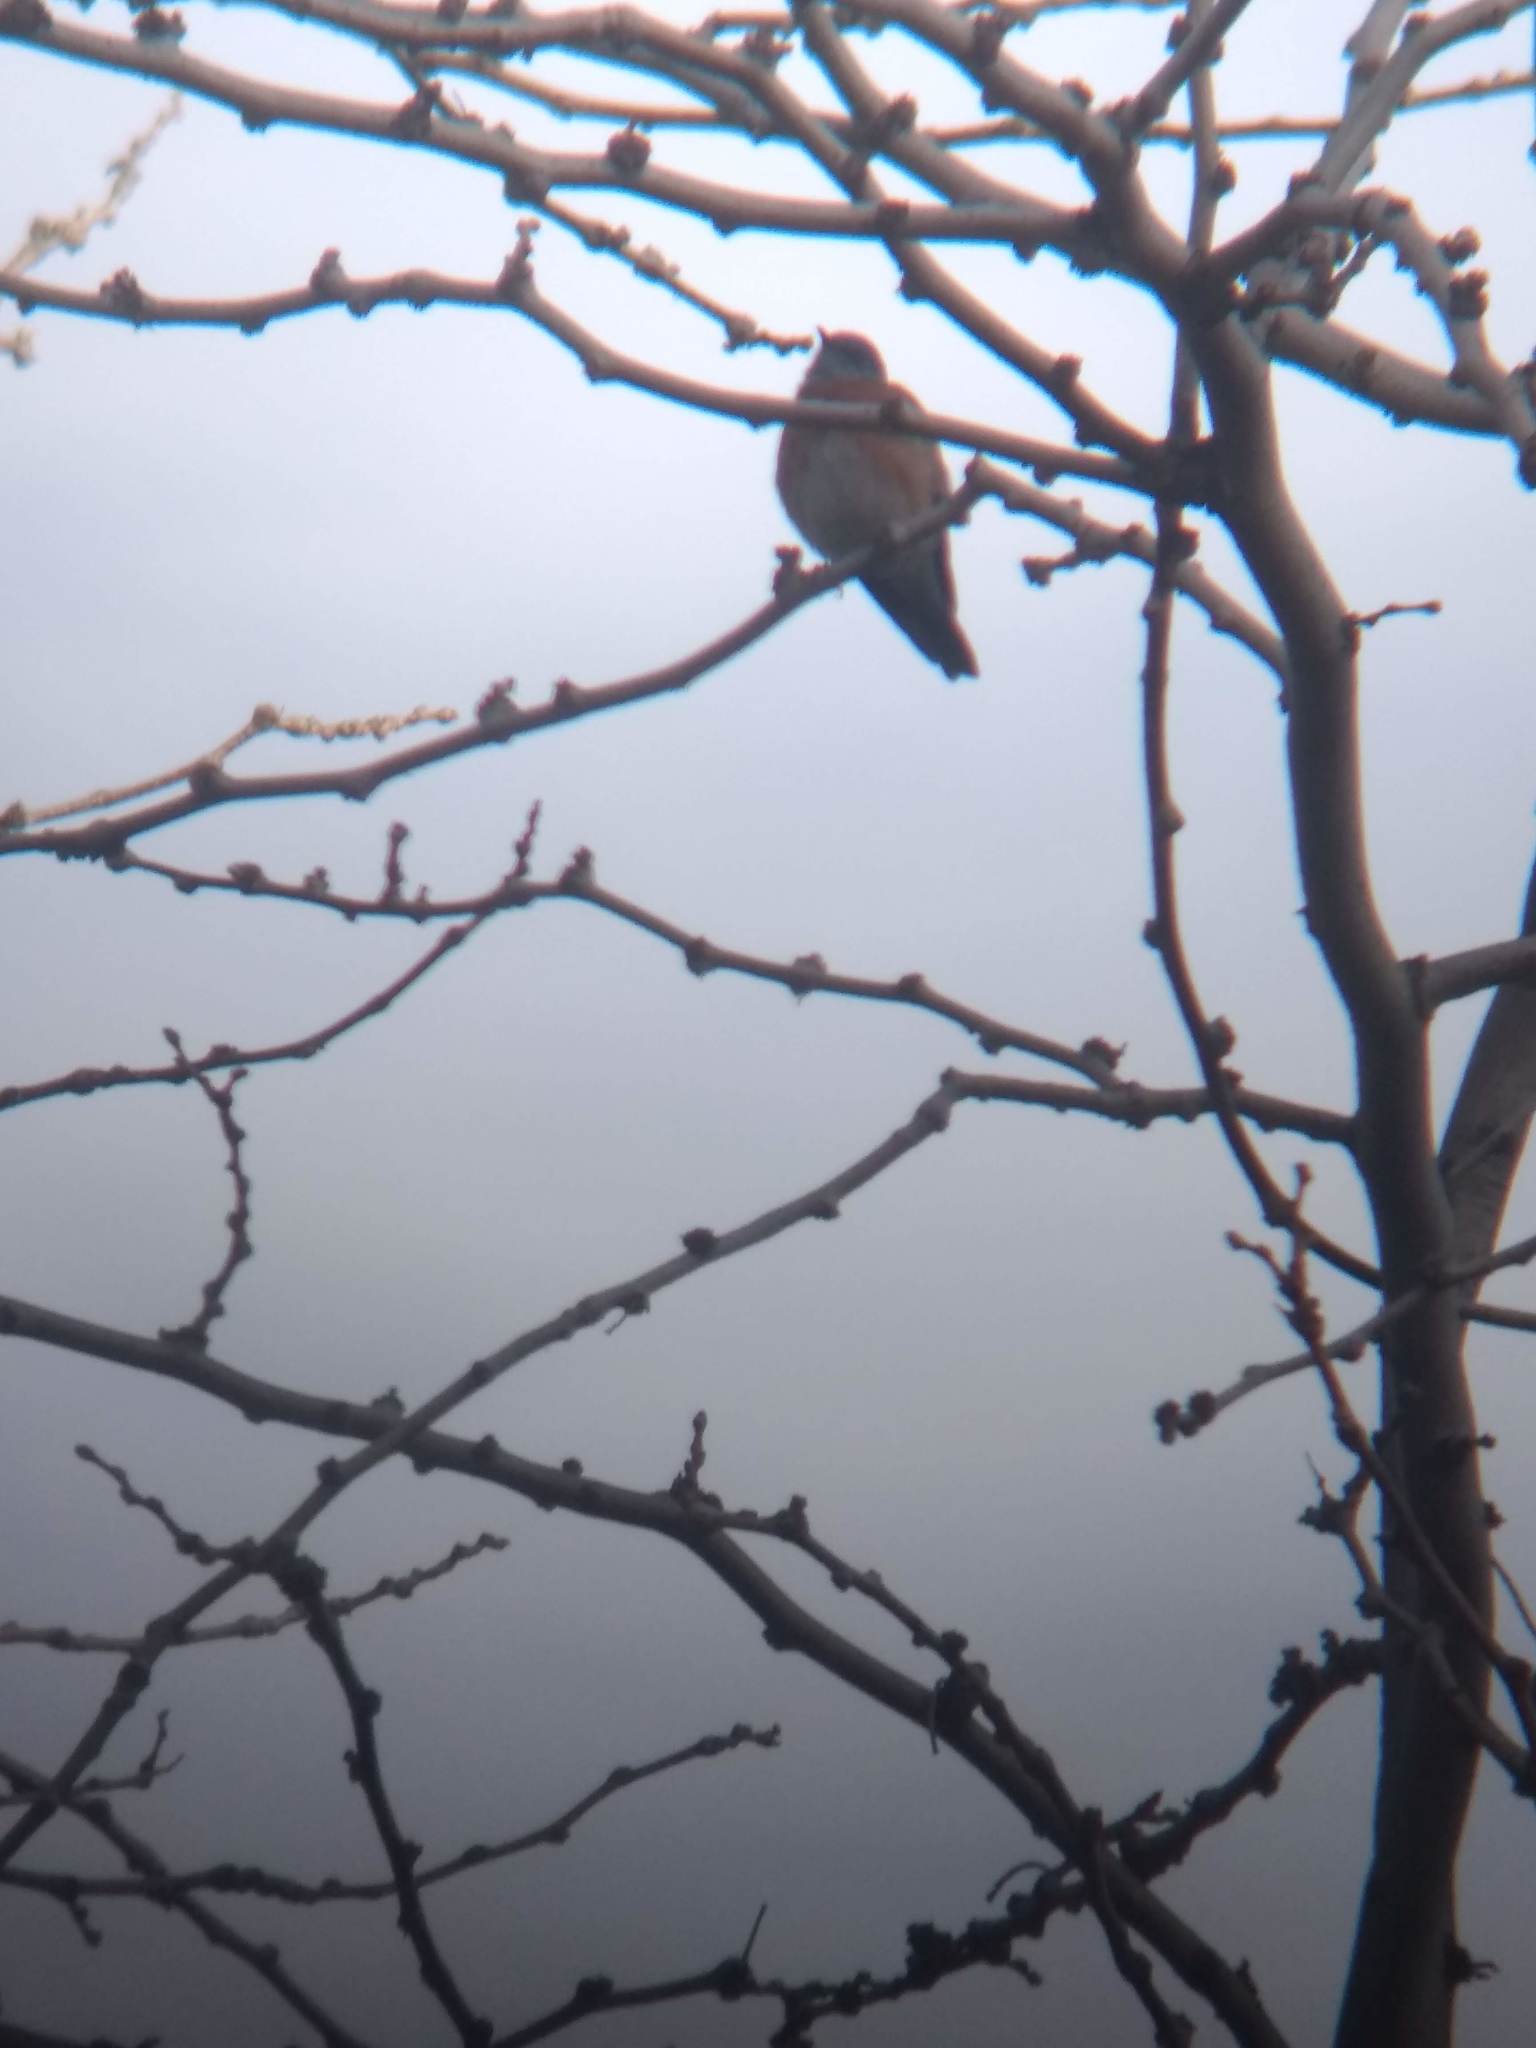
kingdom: Animalia
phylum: Chordata
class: Aves
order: Passeriformes
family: Turdidae
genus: Sialia
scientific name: Sialia mexicana
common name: Western bluebird
